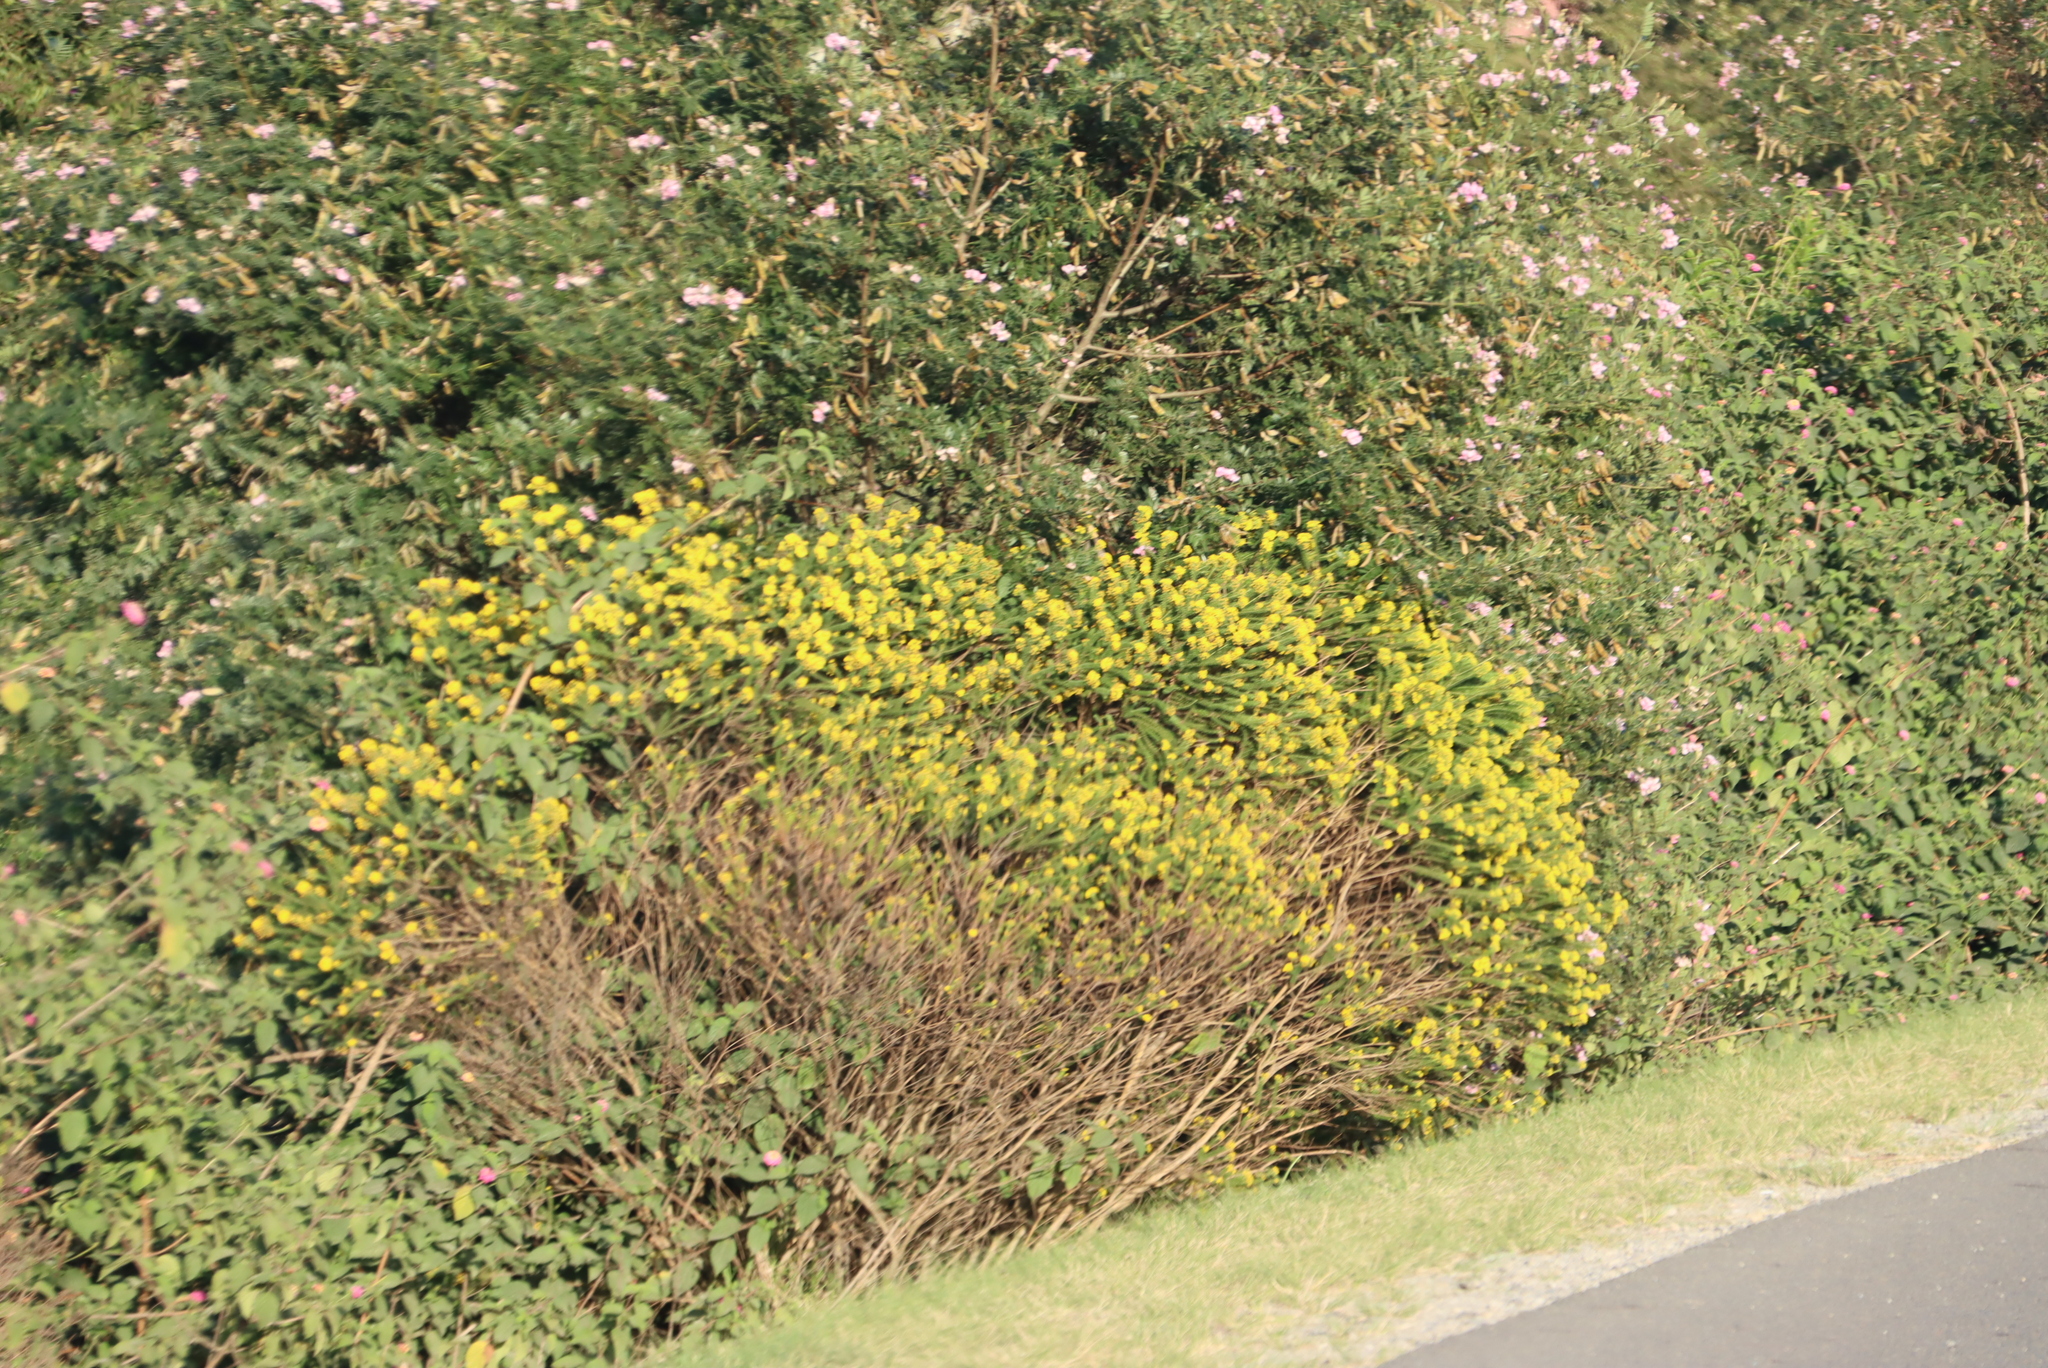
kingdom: Plantae
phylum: Tracheophyta
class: Magnoliopsida
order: Asterales
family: Asteraceae
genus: Euryops
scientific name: Euryops virgineus
